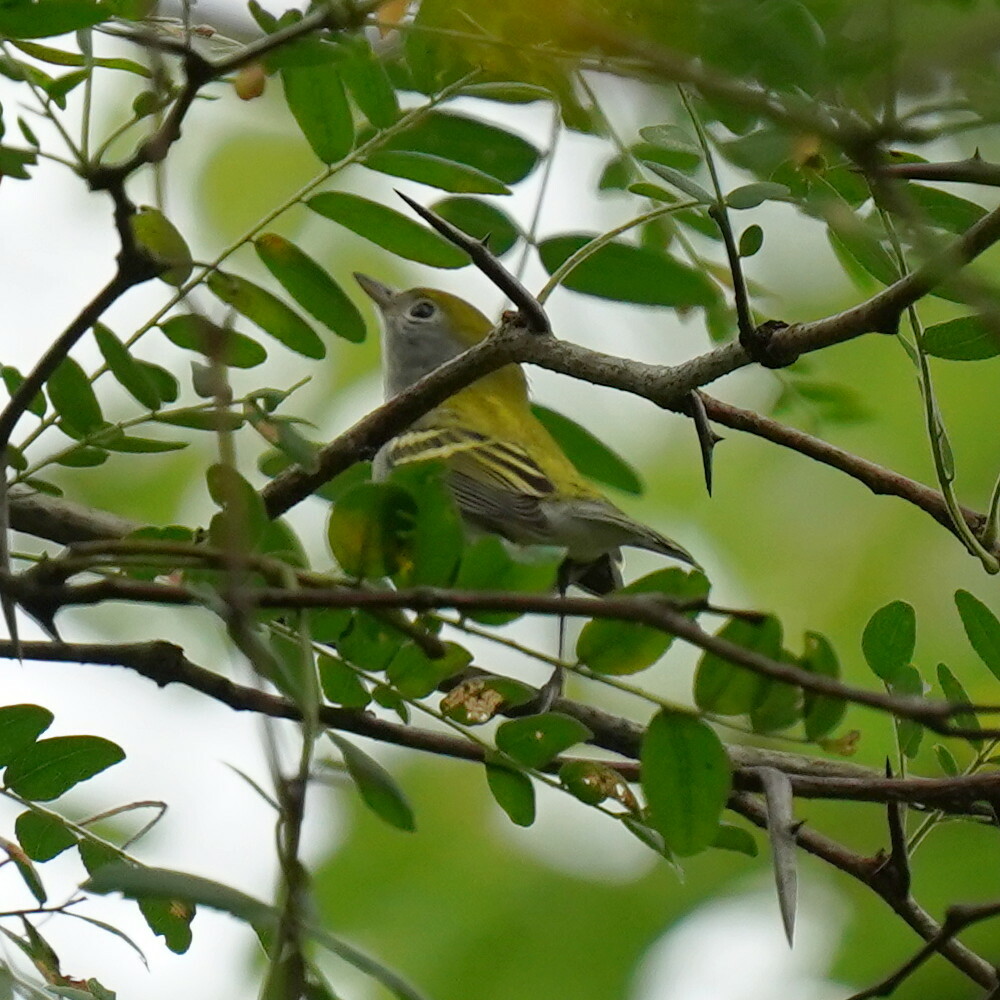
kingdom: Animalia
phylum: Chordata
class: Aves
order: Passeriformes
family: Parulidae
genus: Setophaga
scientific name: Setophaga pensylvanica
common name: Chestnut-sided warbler
